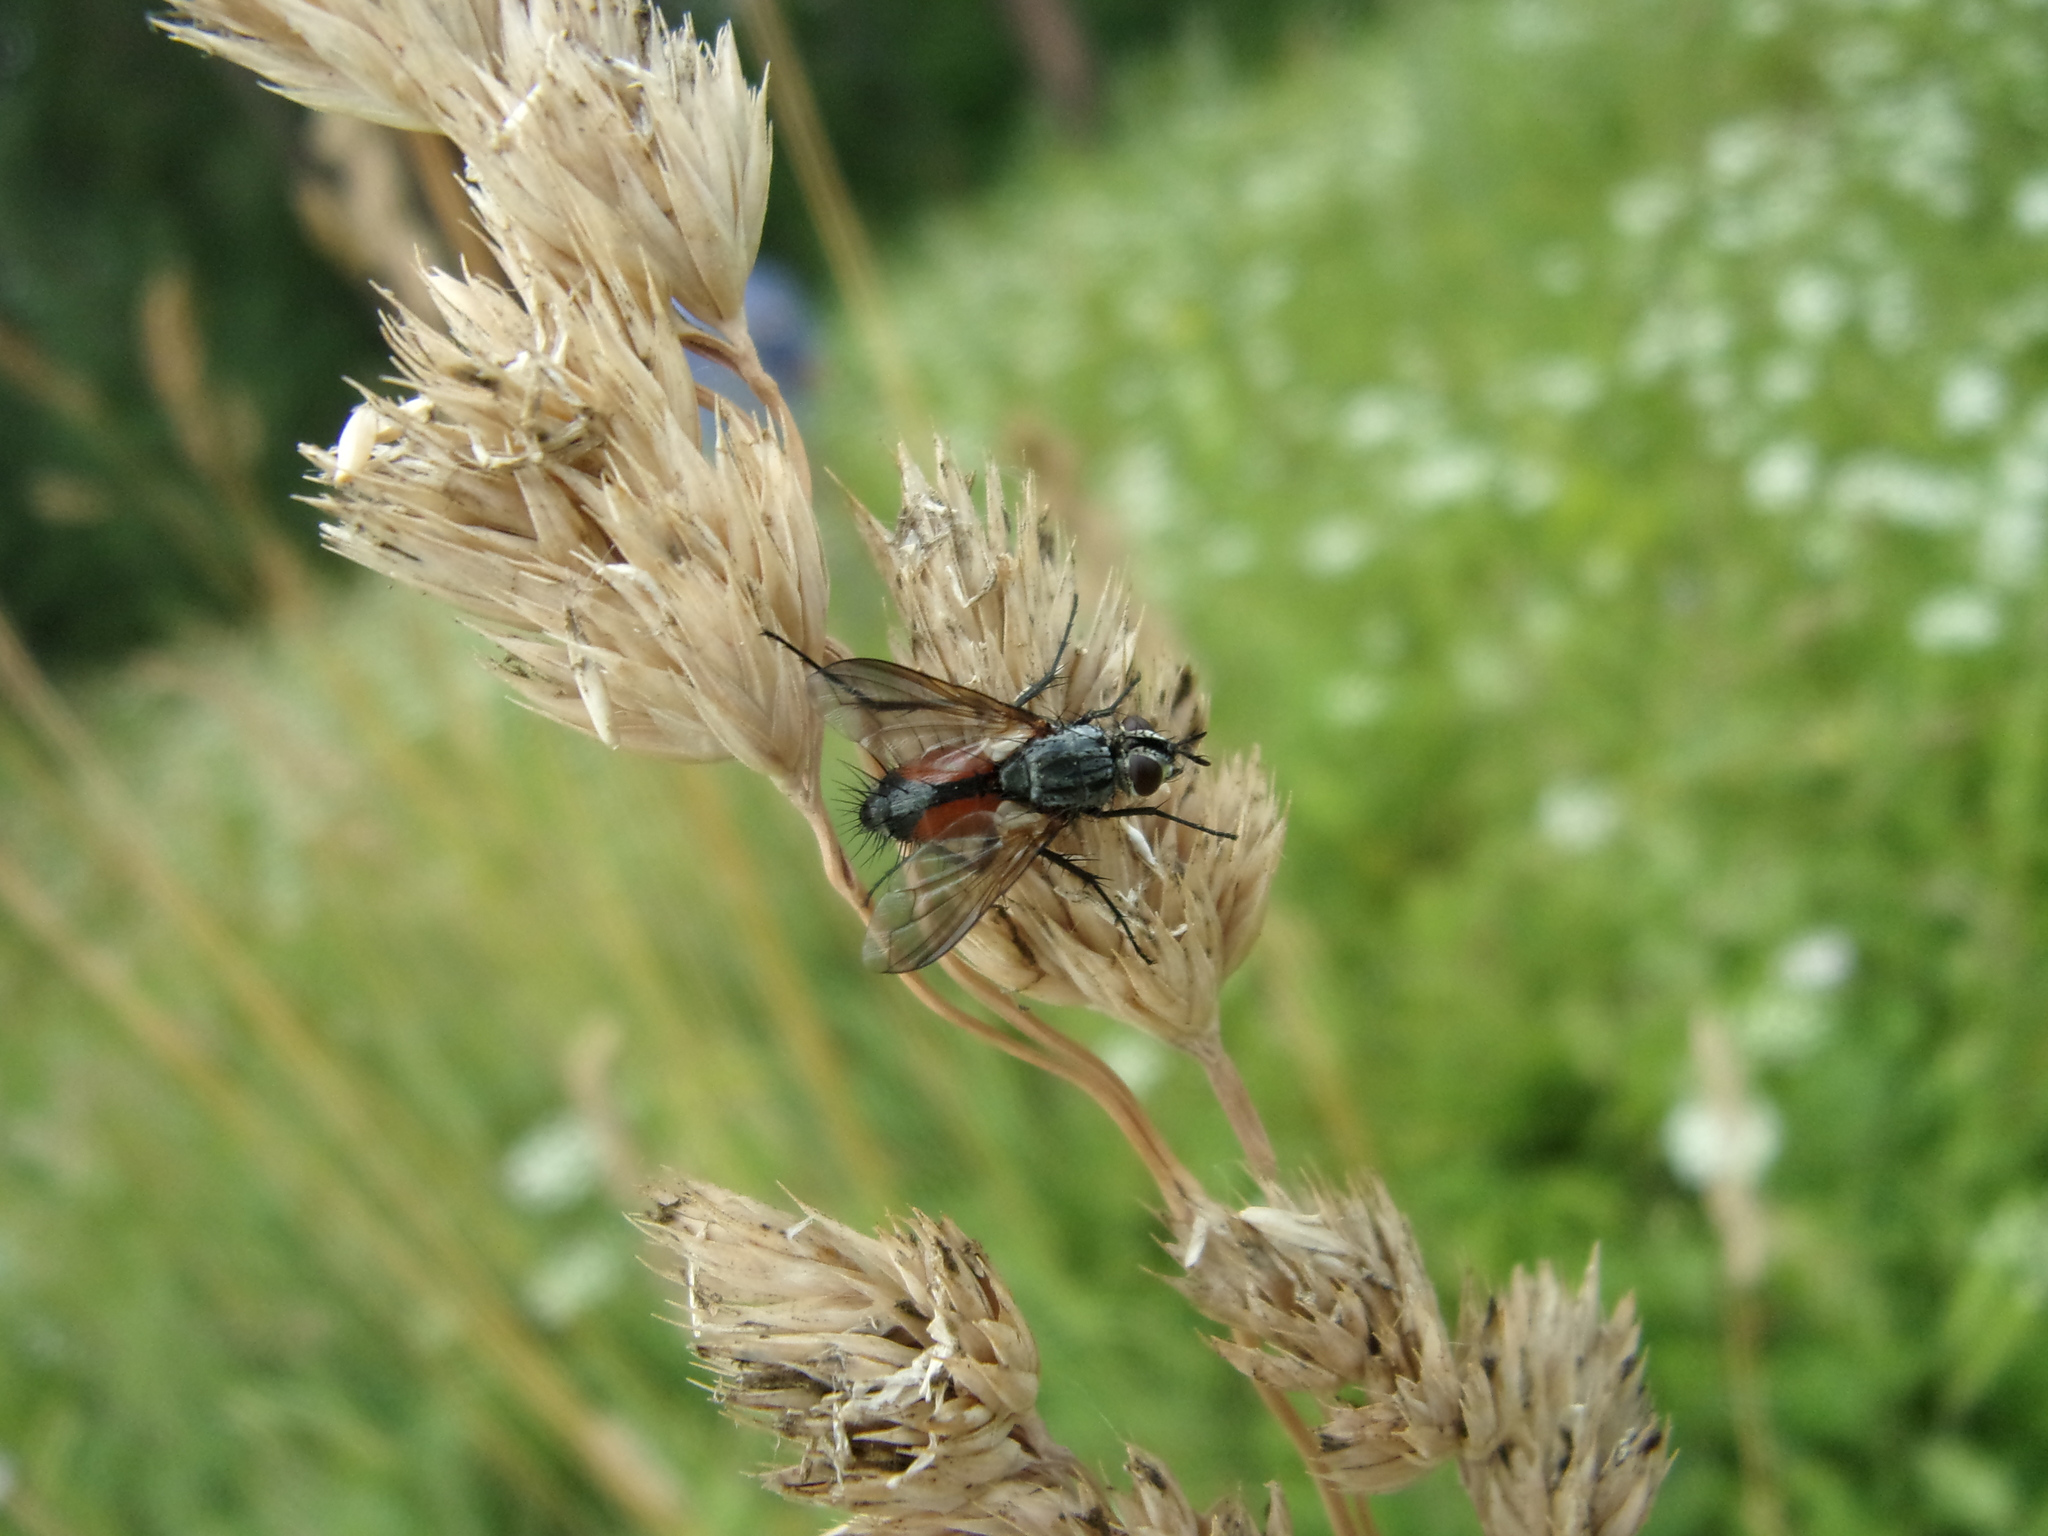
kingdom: Animalia
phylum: Arthropoda
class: Insecta
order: Diptera
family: Tachinidae
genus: Eriothrix
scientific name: Eriothrix rufomaculatus
